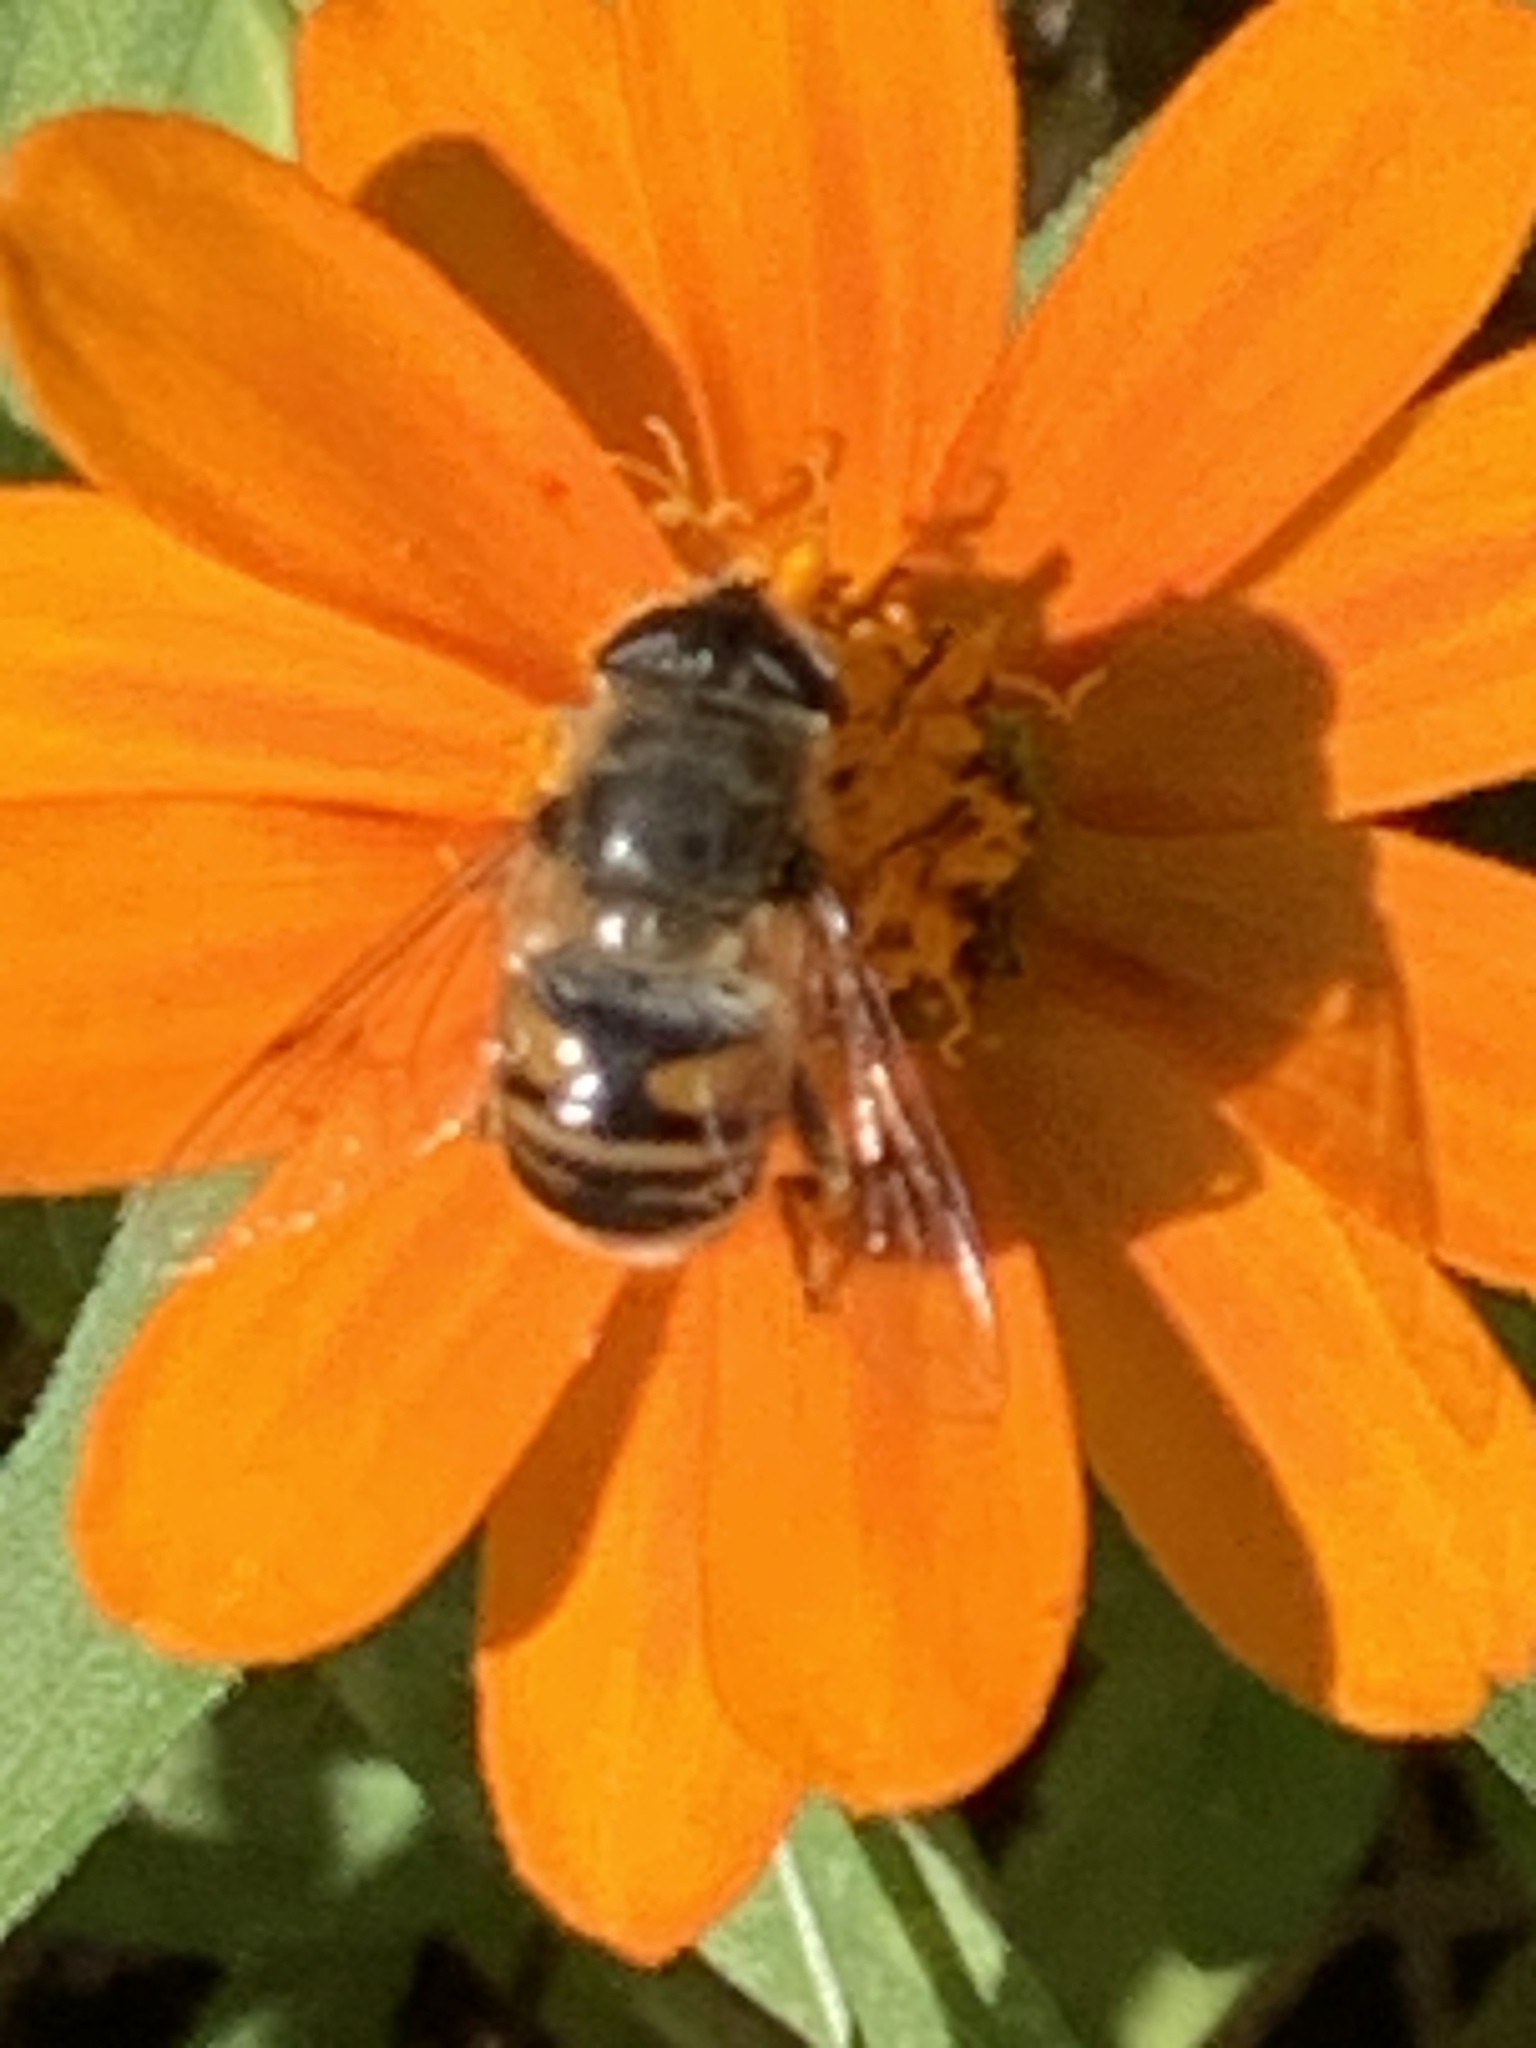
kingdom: Animalia
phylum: Arthropoda
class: Insecta
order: Diptera
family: Syrphidae
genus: Eristalis
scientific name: Eristalis tenax
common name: Drone fly
